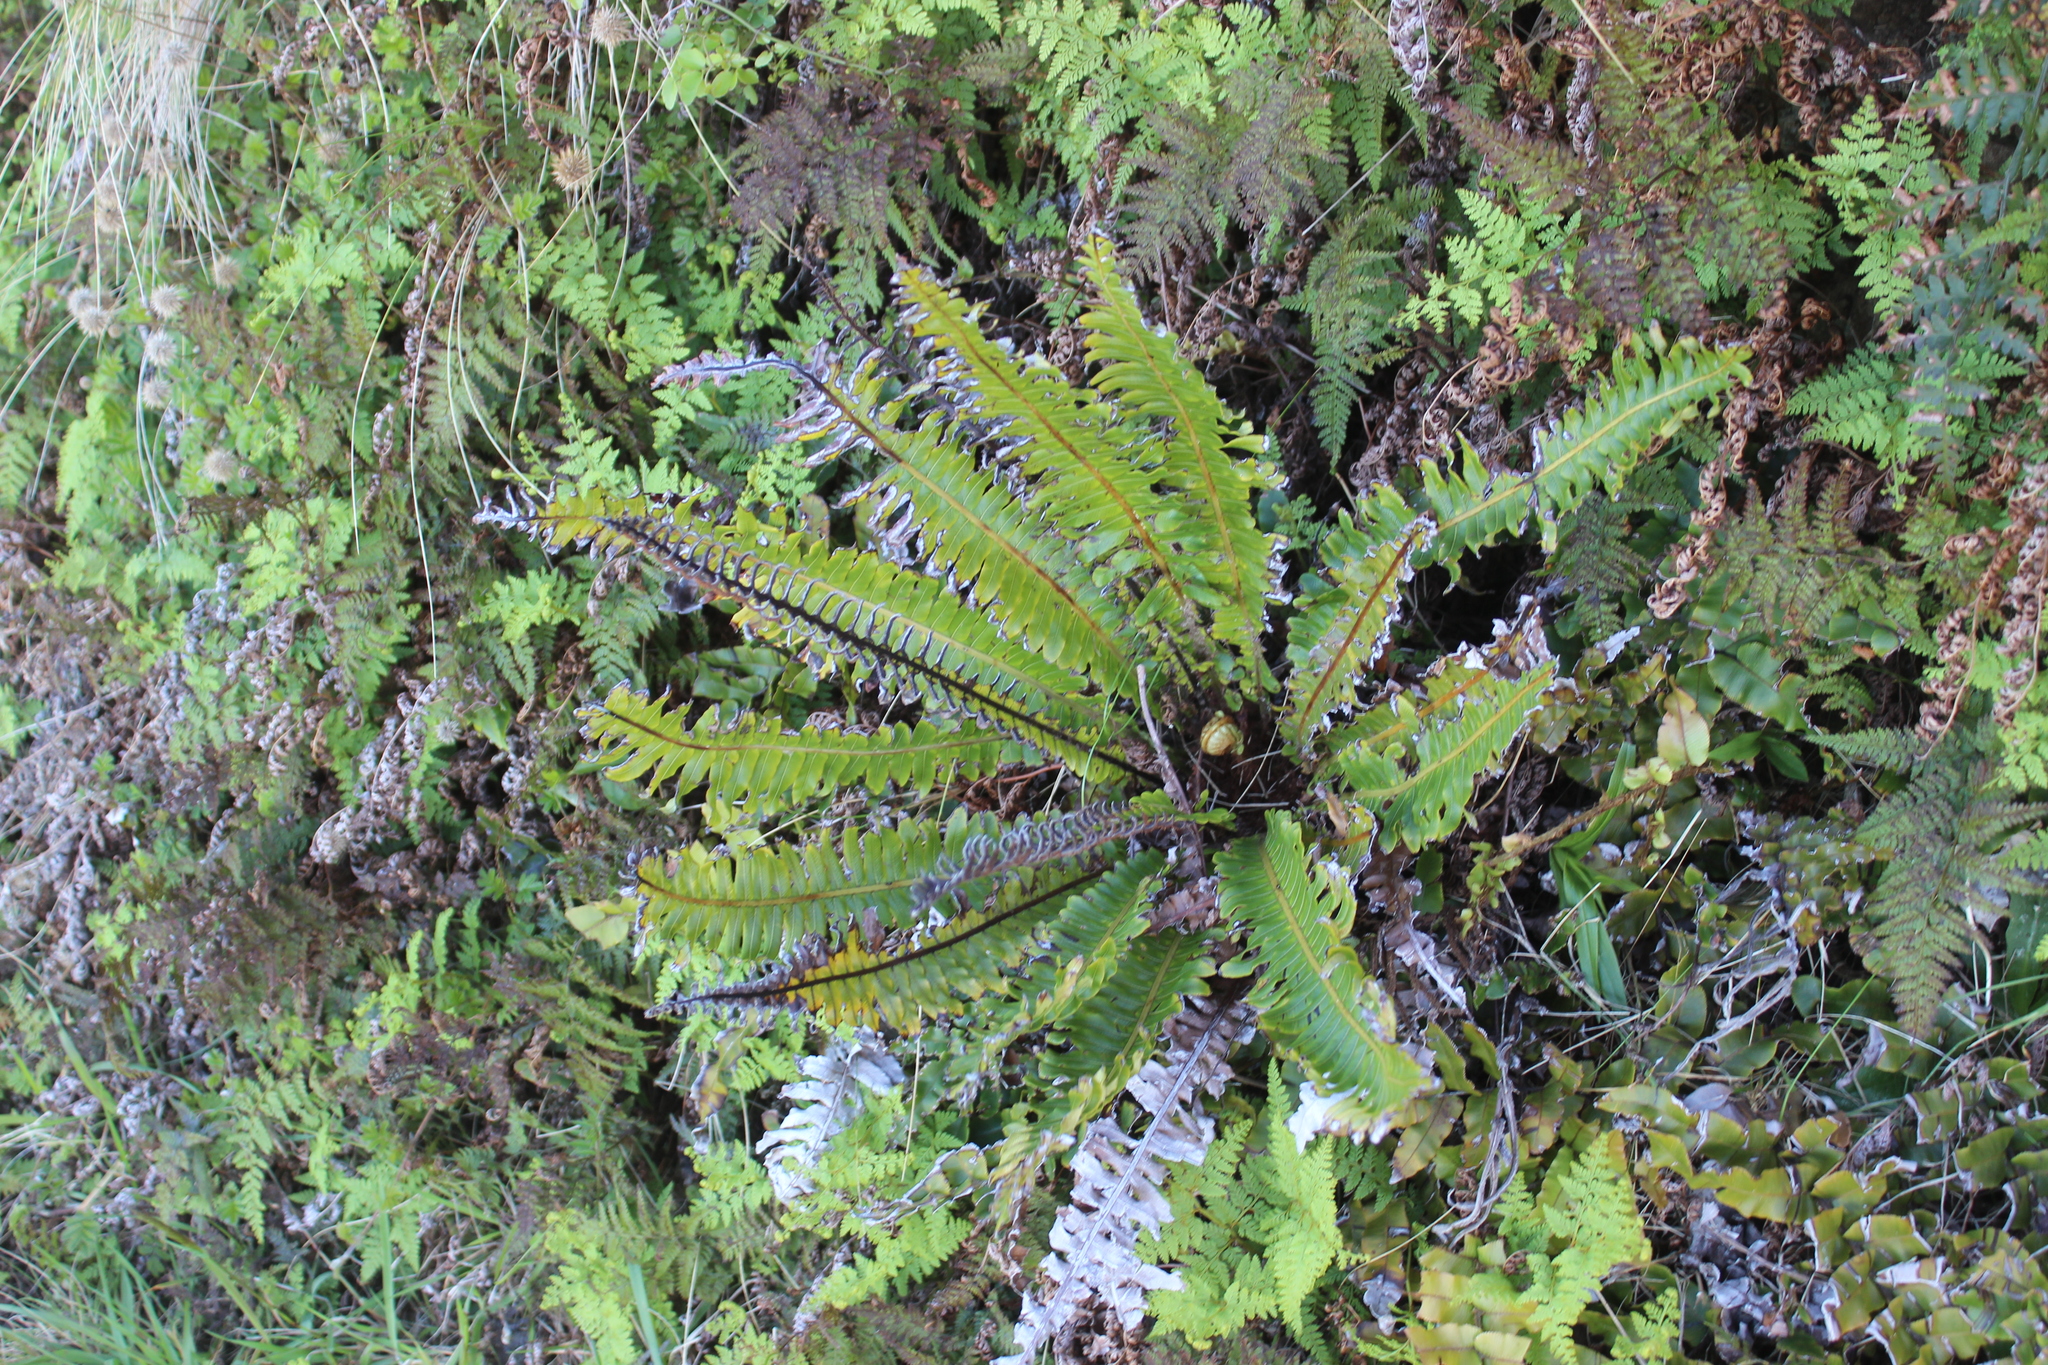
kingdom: Plantae
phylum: Tracheophyta
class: Polypodiopsida
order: Polypodiales
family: Blechnaceae
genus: Lomaria
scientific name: Lomaria discolor
